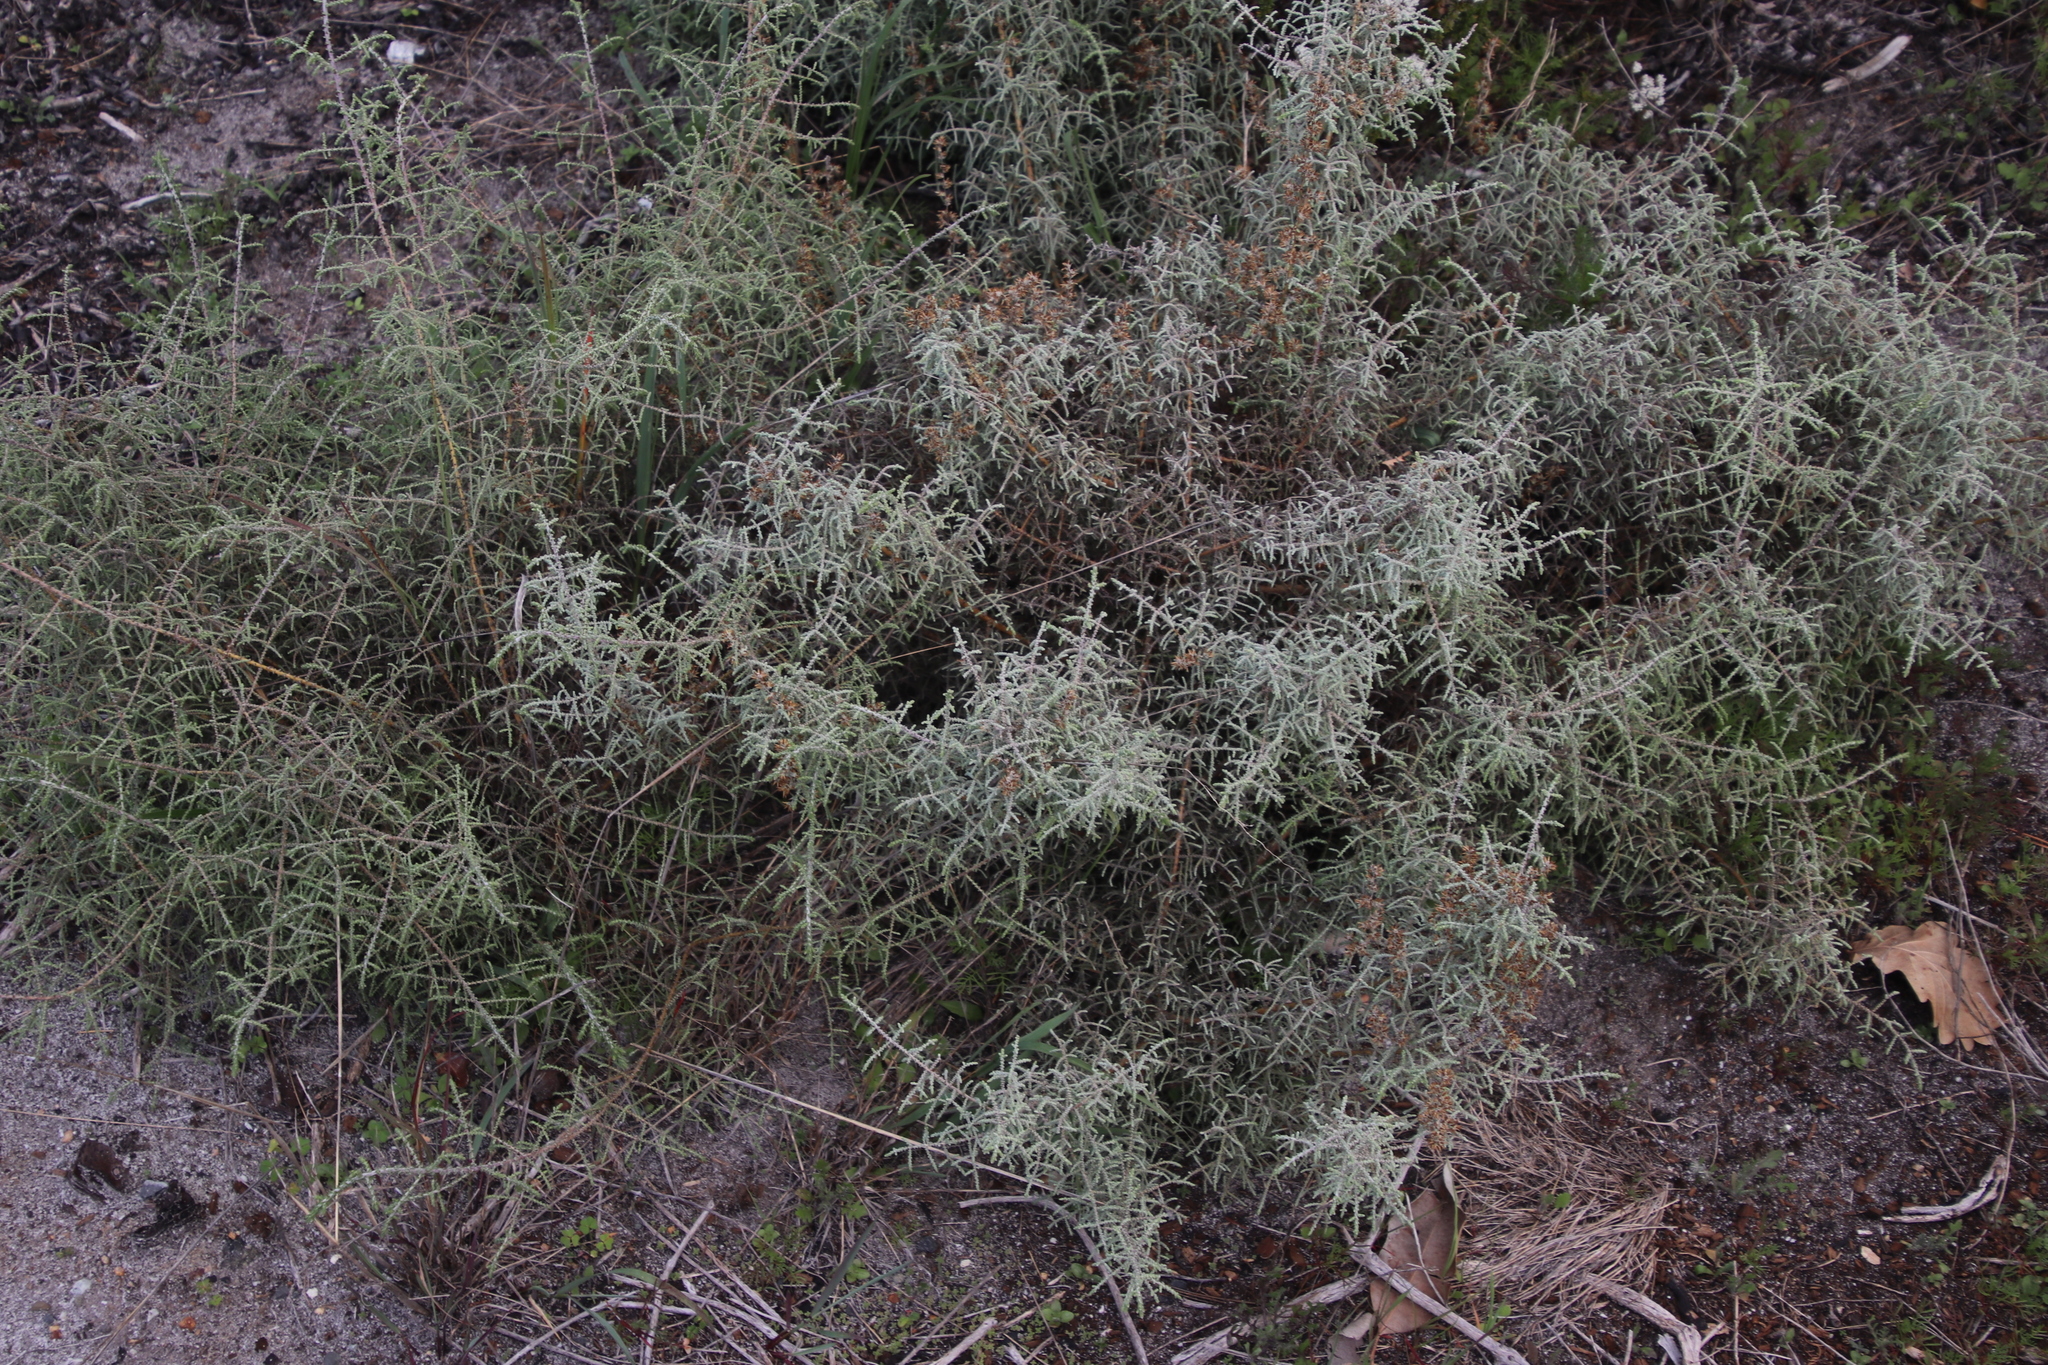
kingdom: Plantae
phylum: Tracheophyta
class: Magnoliopsida
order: Asterales
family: Asteraceae
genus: Seriphium
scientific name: Seriphium plumosum
